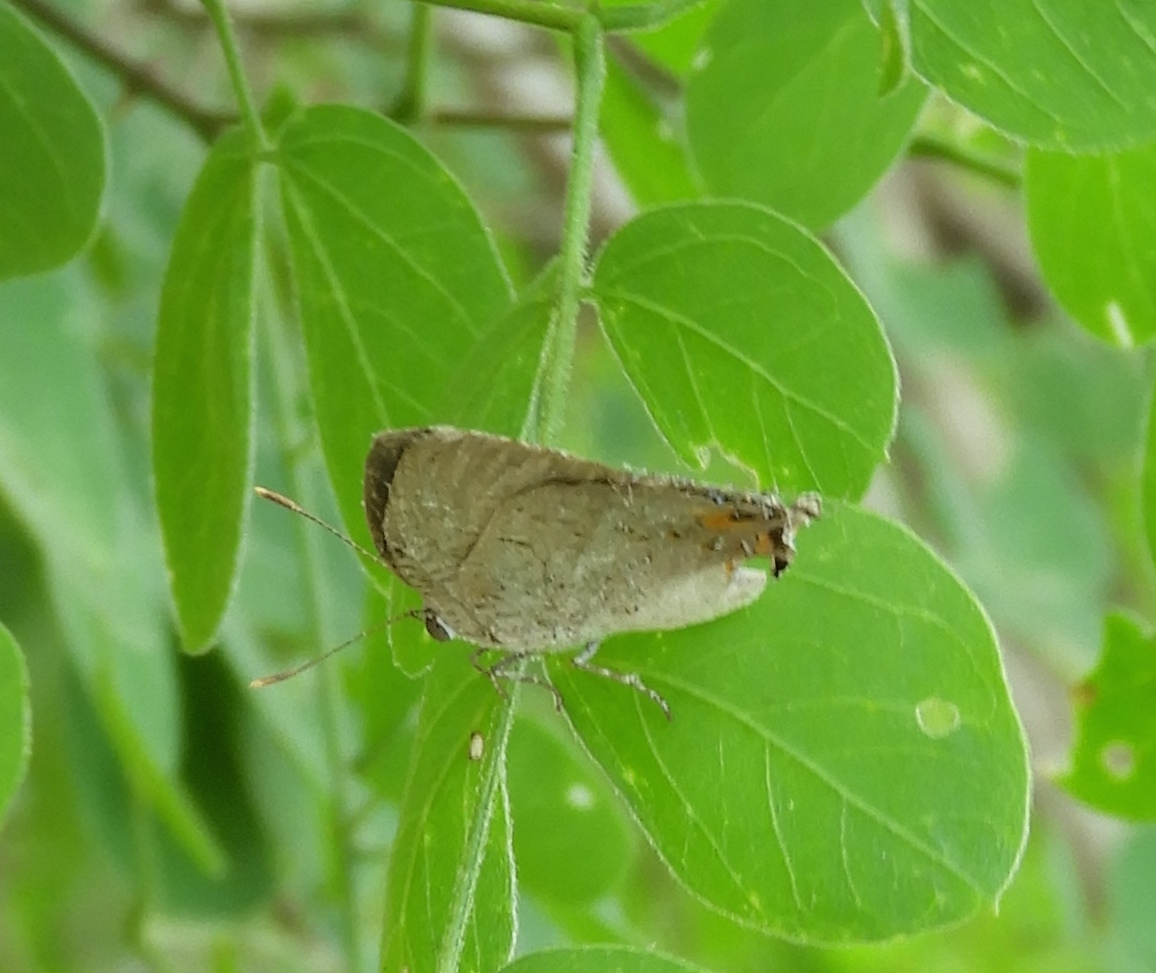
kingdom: Animalia
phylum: Arthropoda
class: Insecta
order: Lepidoptera
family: Lycaenidae
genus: Hypostrymon
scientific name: Hypostrymon critola
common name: Sonoran hairstreak
